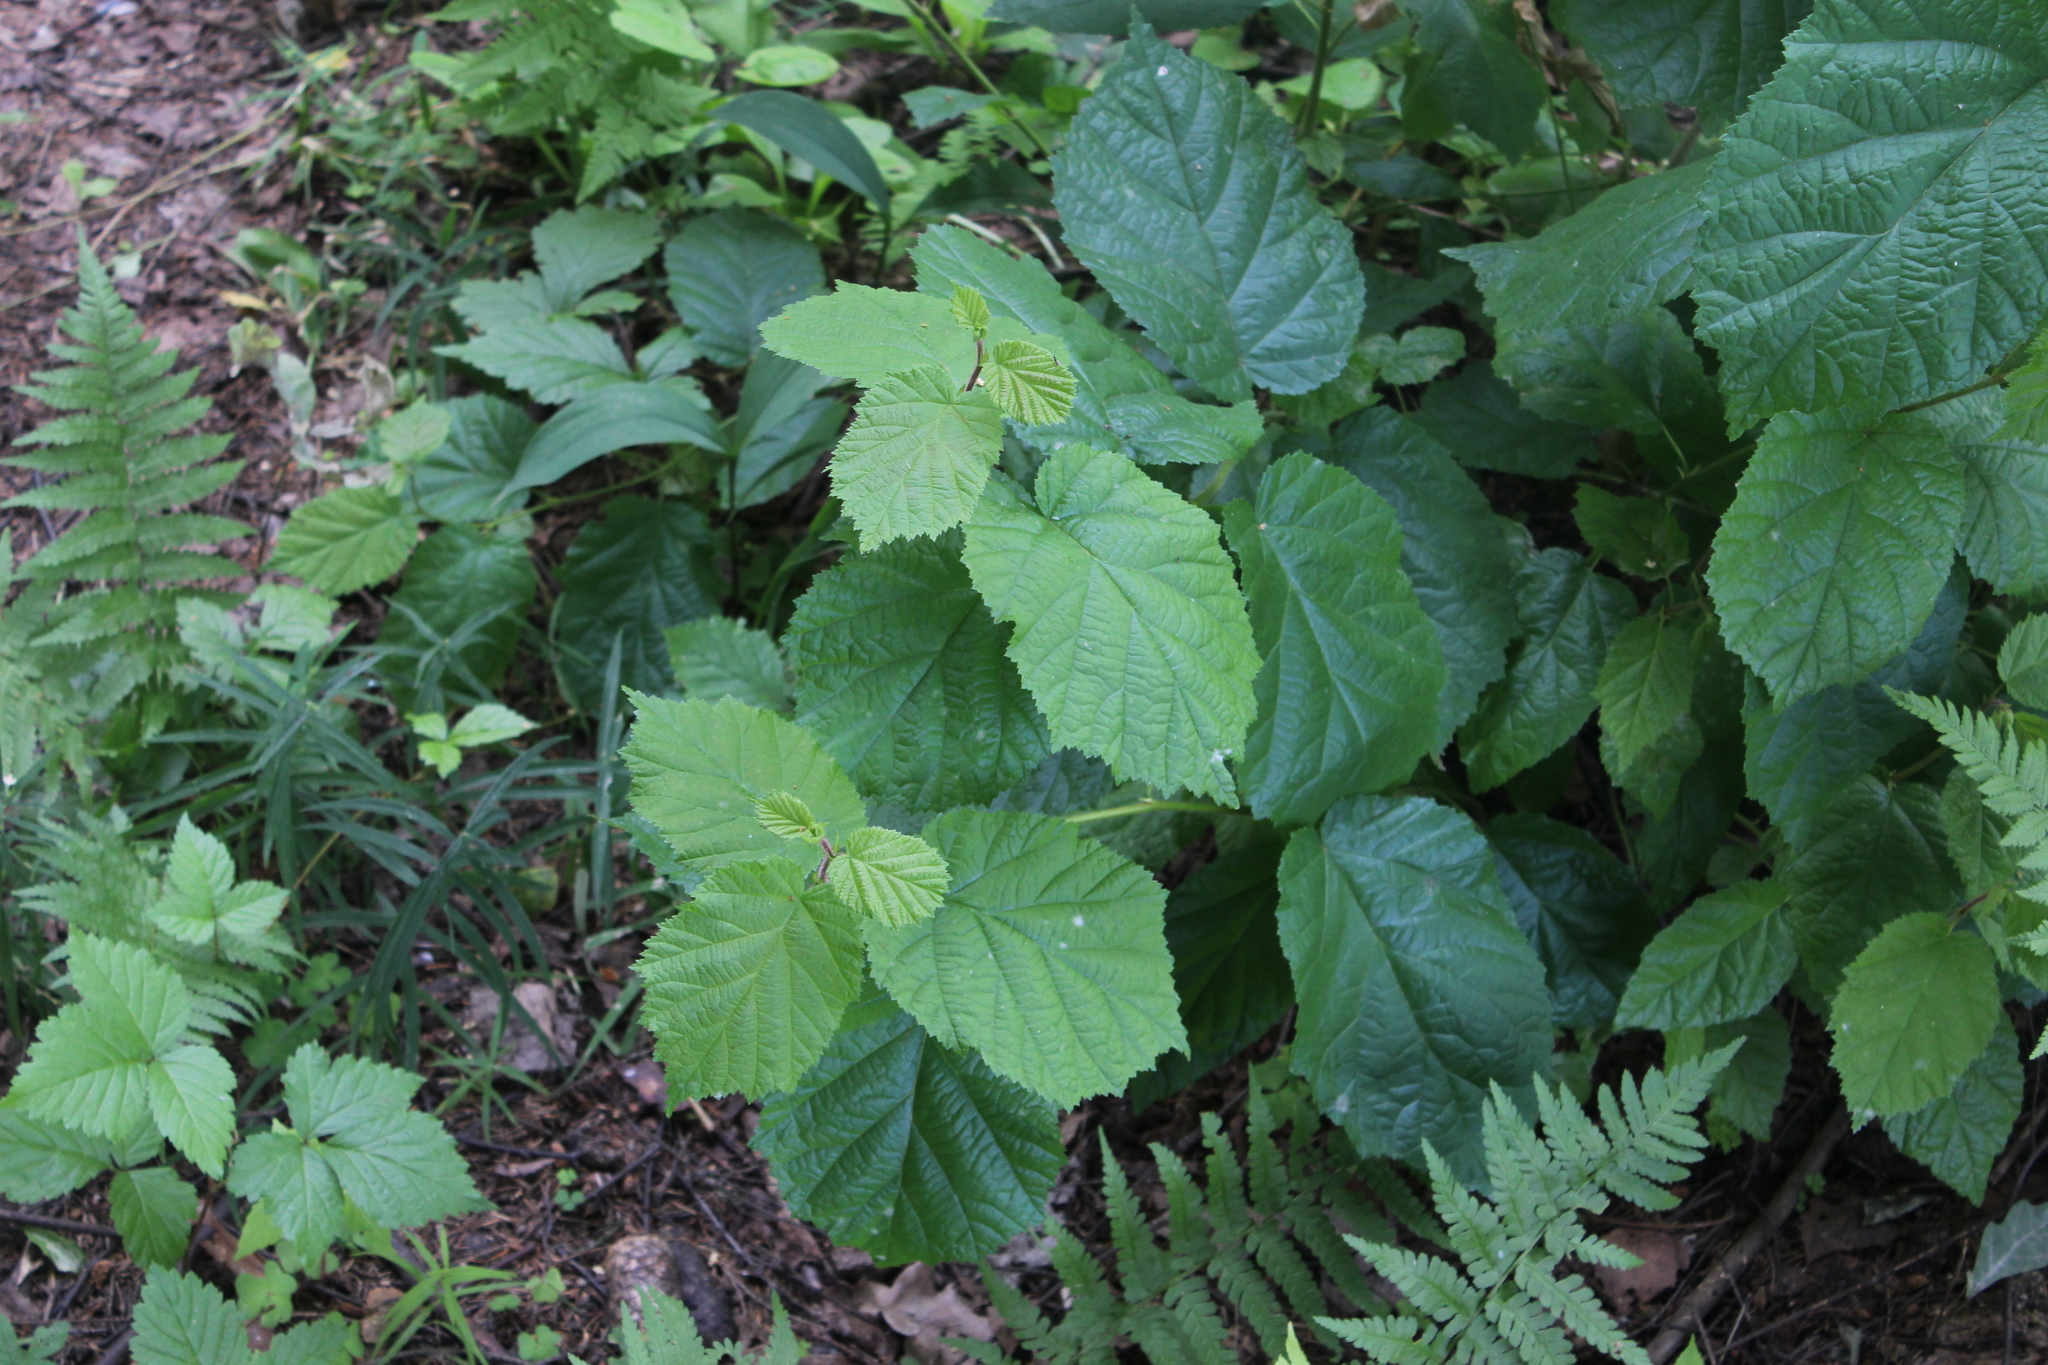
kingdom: Plantae
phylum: Tracheophyta
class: Magnoliopsida
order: Fagales
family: Betulaceae
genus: Corylus
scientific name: Corylus avellana
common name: European hazel
